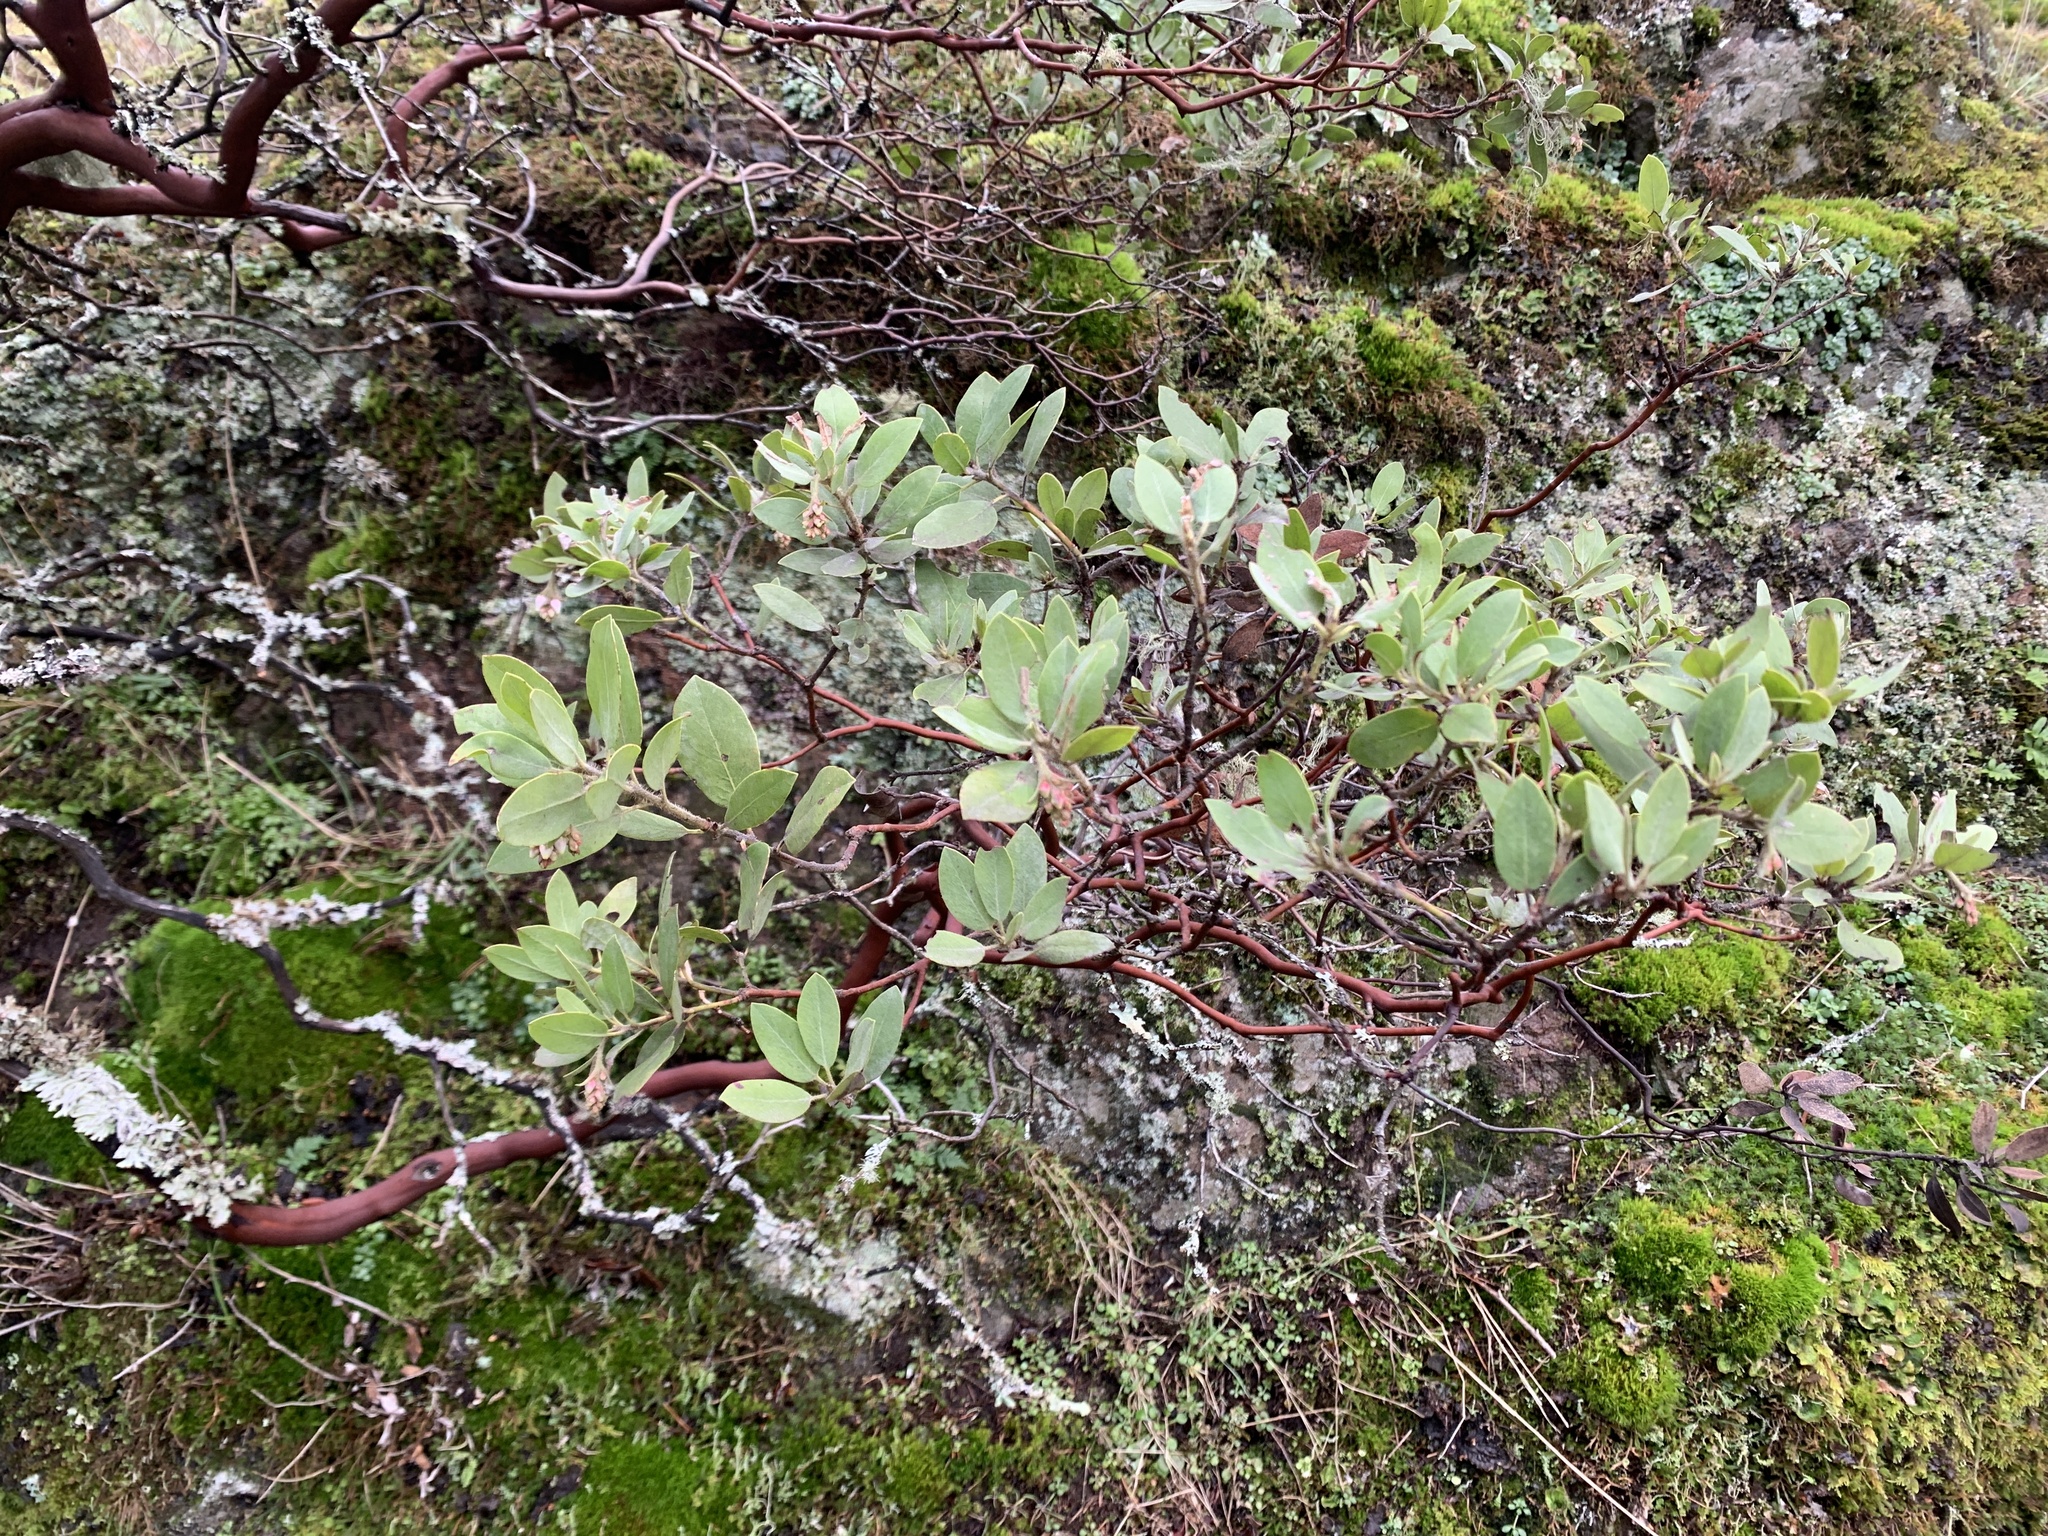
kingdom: Plantae
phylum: Tracheophyta
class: Magnoliopsida
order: Ericales
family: Ericaceae
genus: Arctostaphylos
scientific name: Arctostaphylos columbiana
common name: Bristly bearberry
